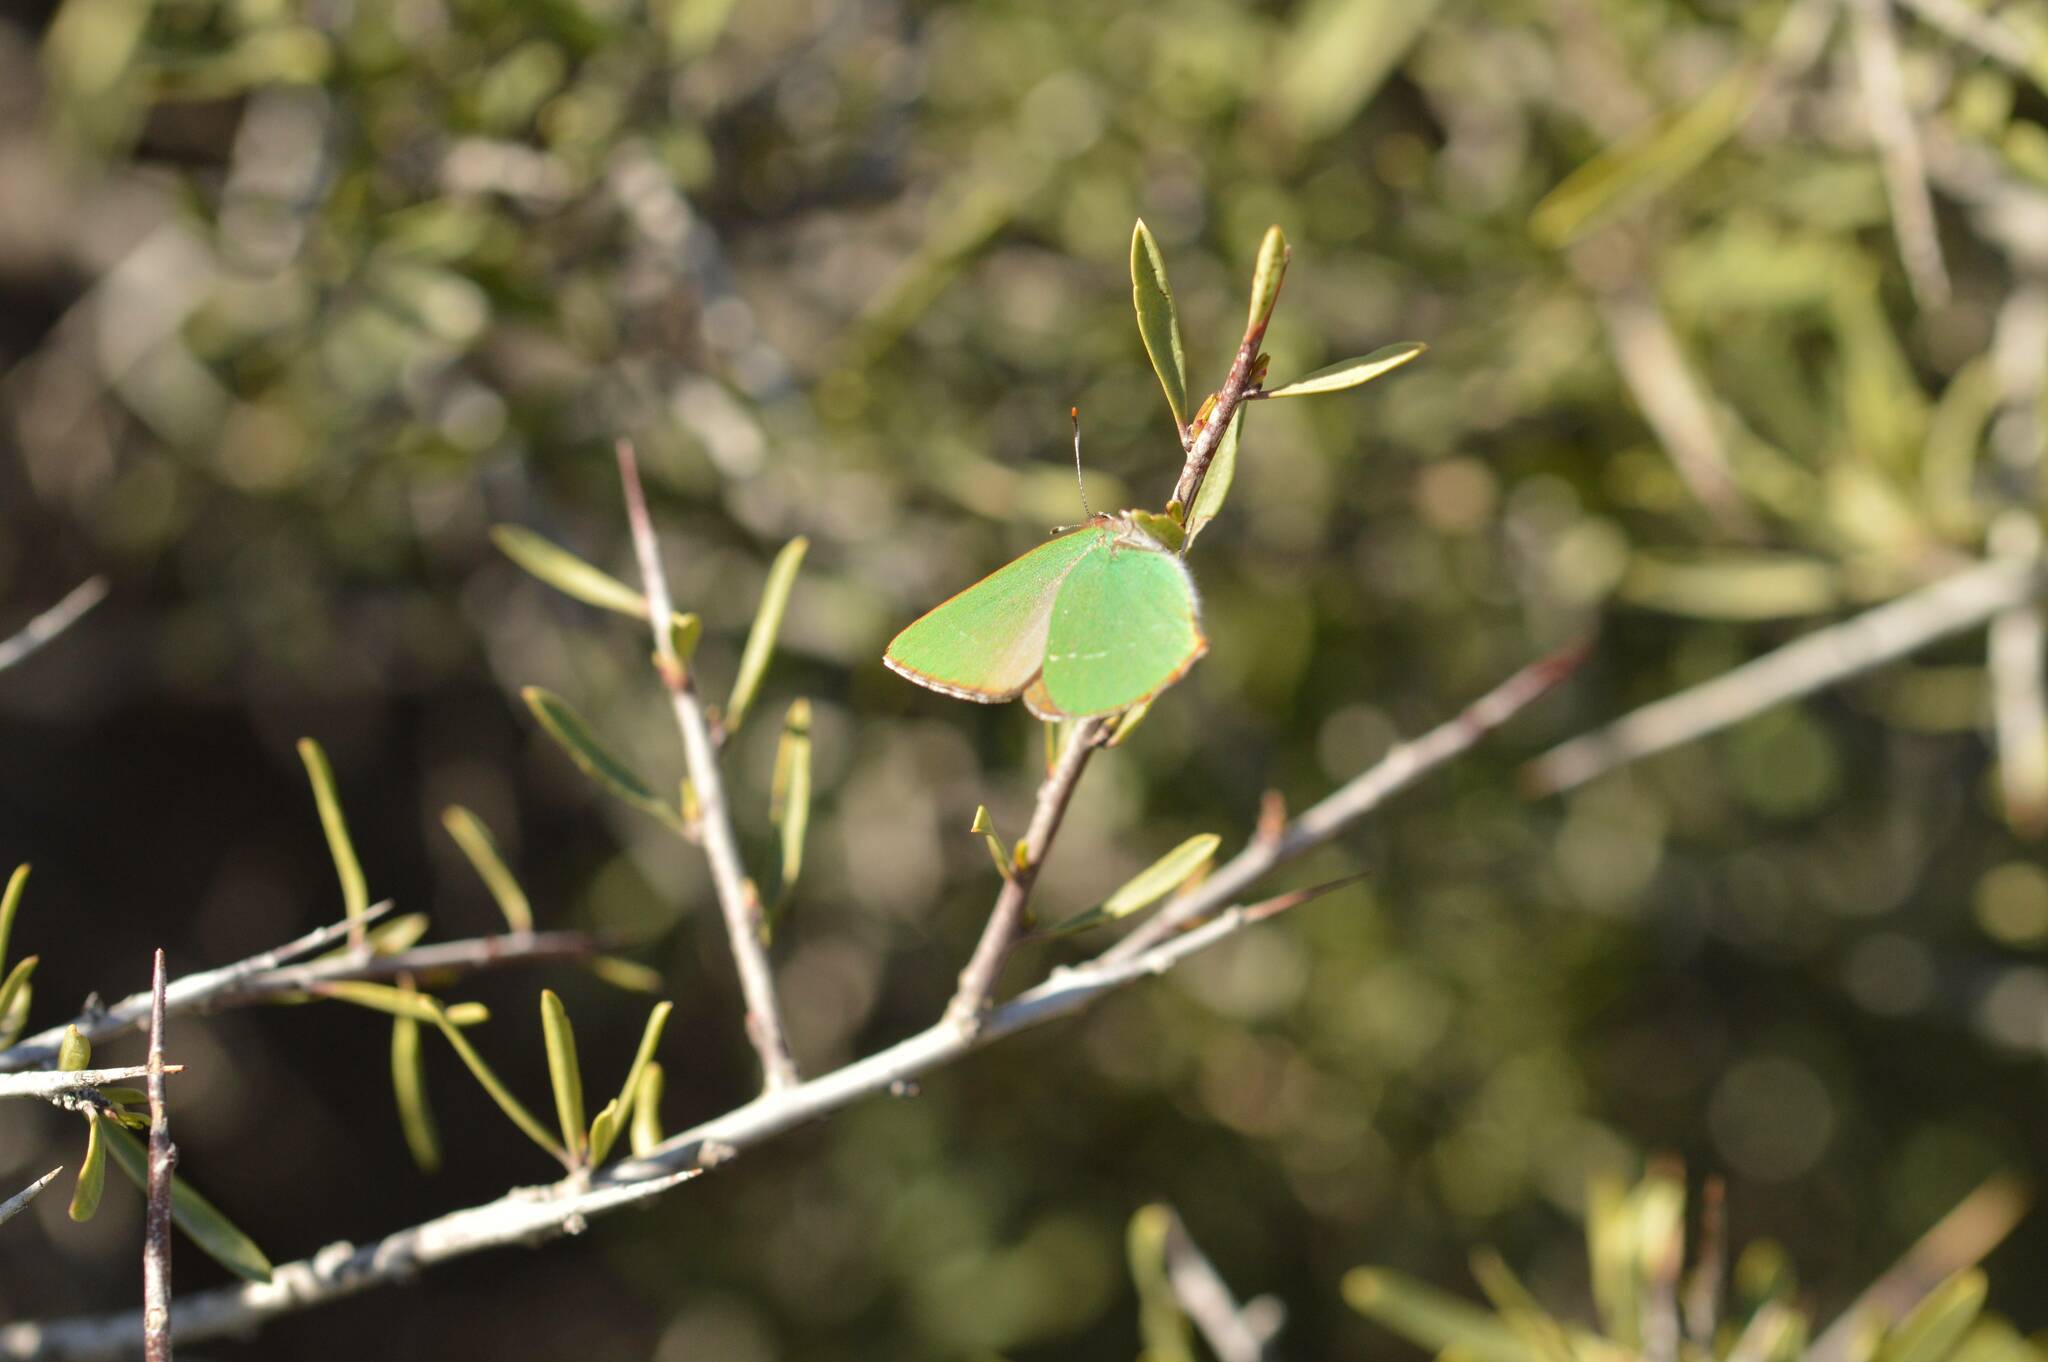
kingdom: Animalia
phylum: Arthropoda
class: Insecta
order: Lepidoptera
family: Lycaenidae
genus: Callophrys
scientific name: Callophrys avis
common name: Chapman's green hairstreak
